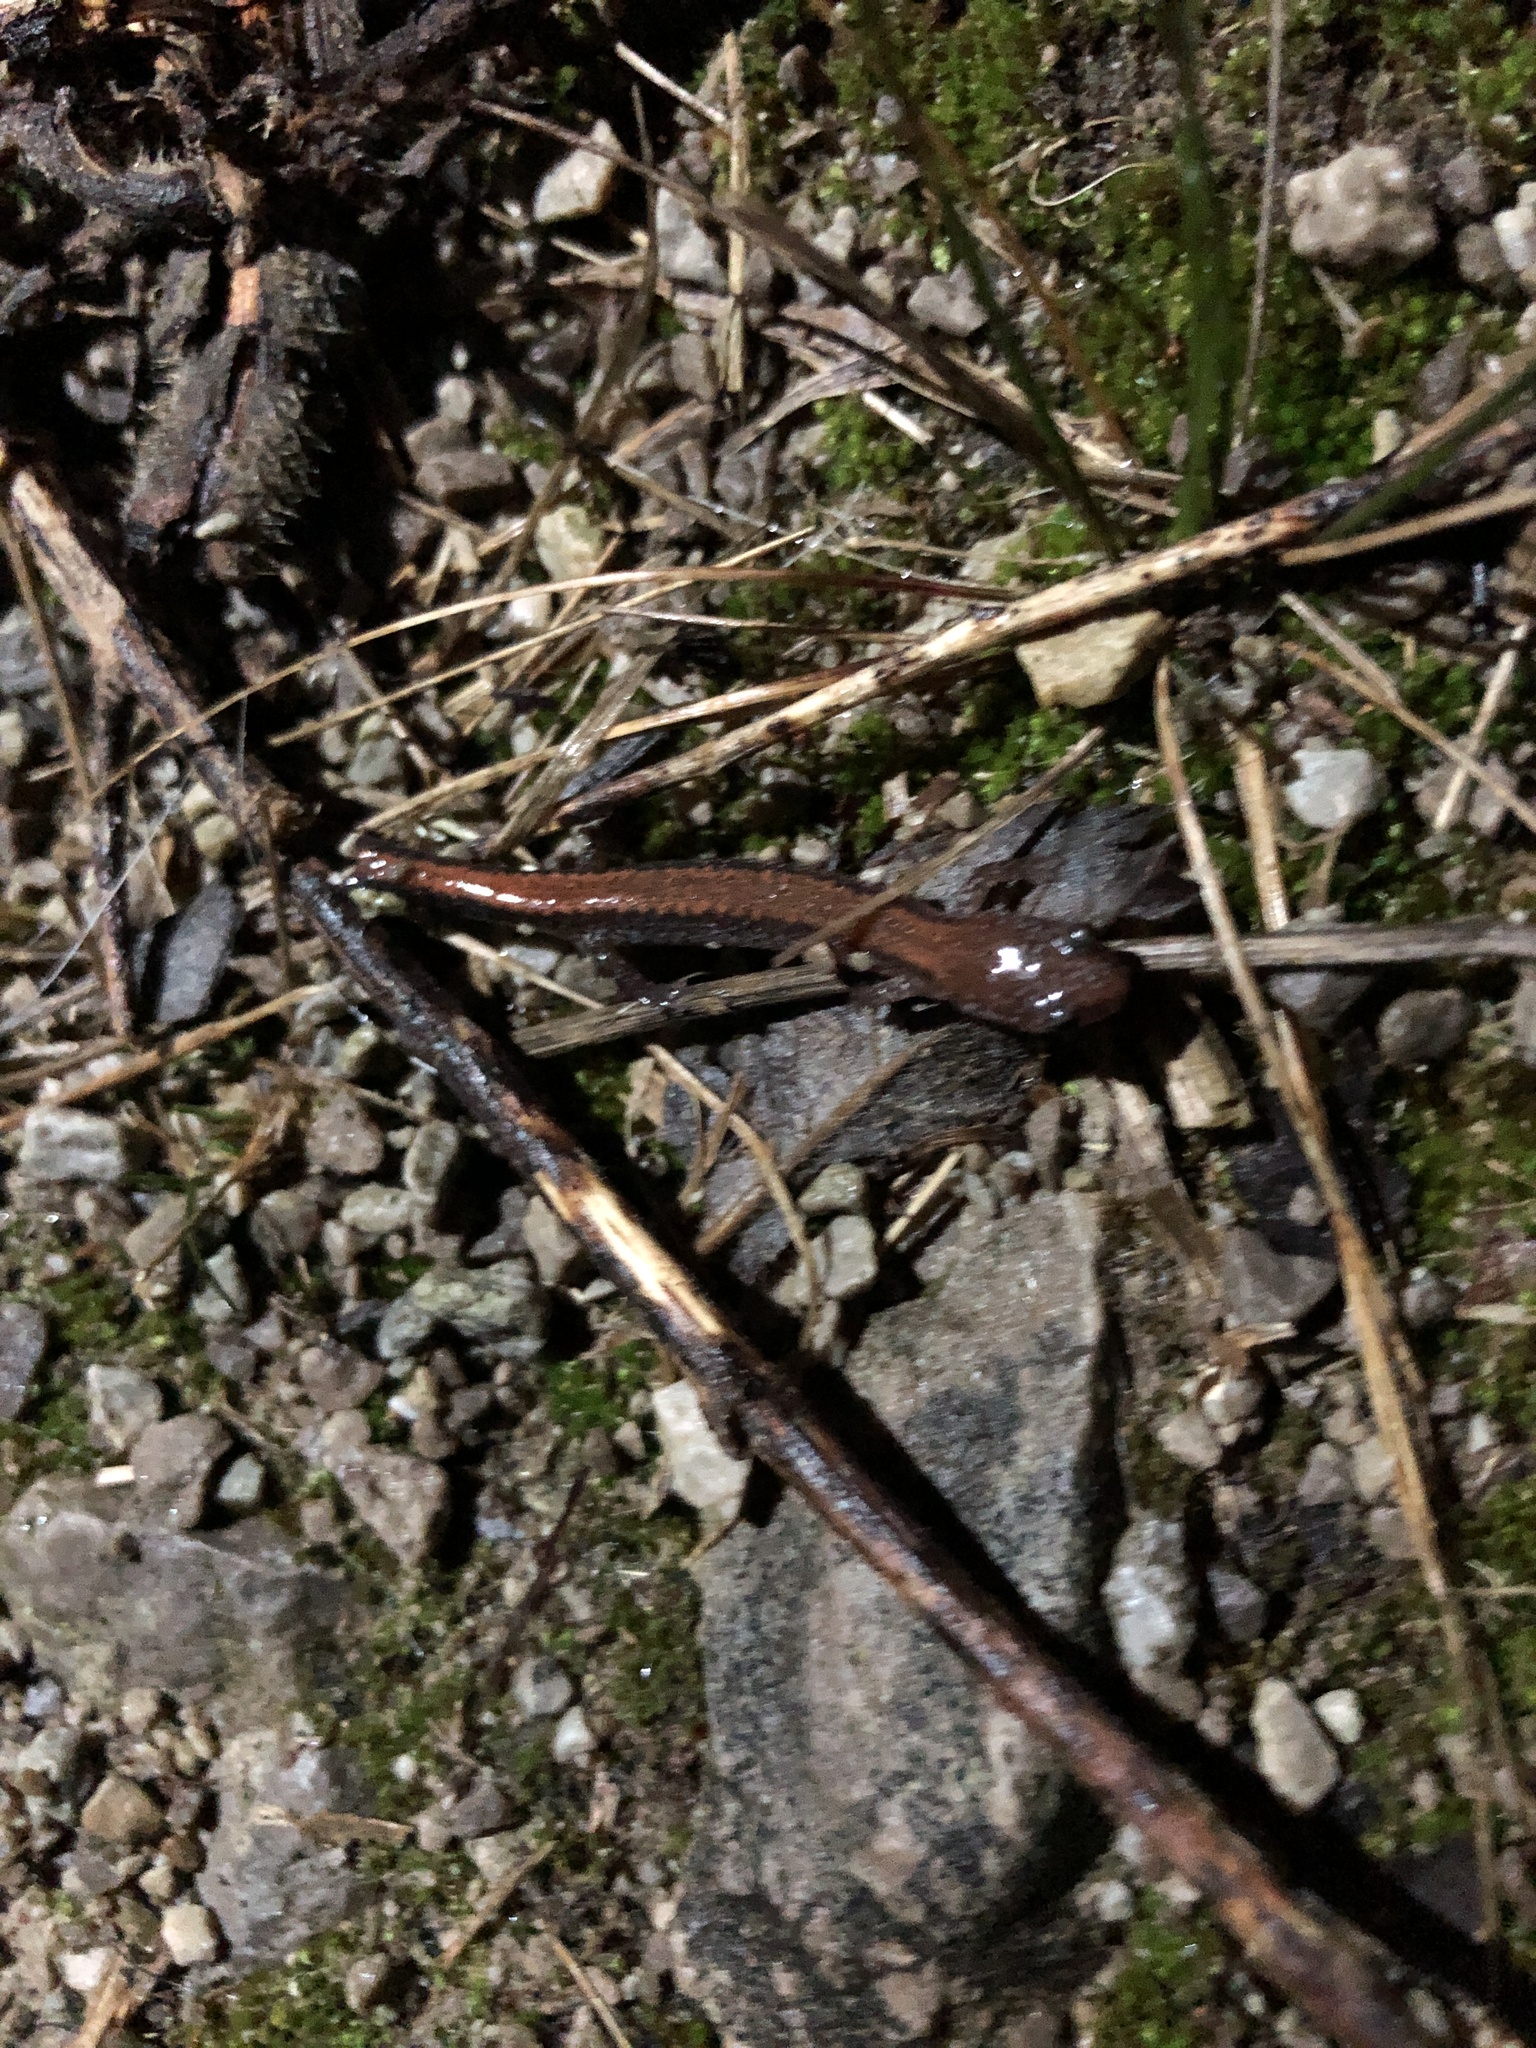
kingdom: Animalia
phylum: Chordata
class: Amphibia
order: Caudata
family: Plethodontidae
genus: Plethodon
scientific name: Plethodon cinereus
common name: Redback salamander
